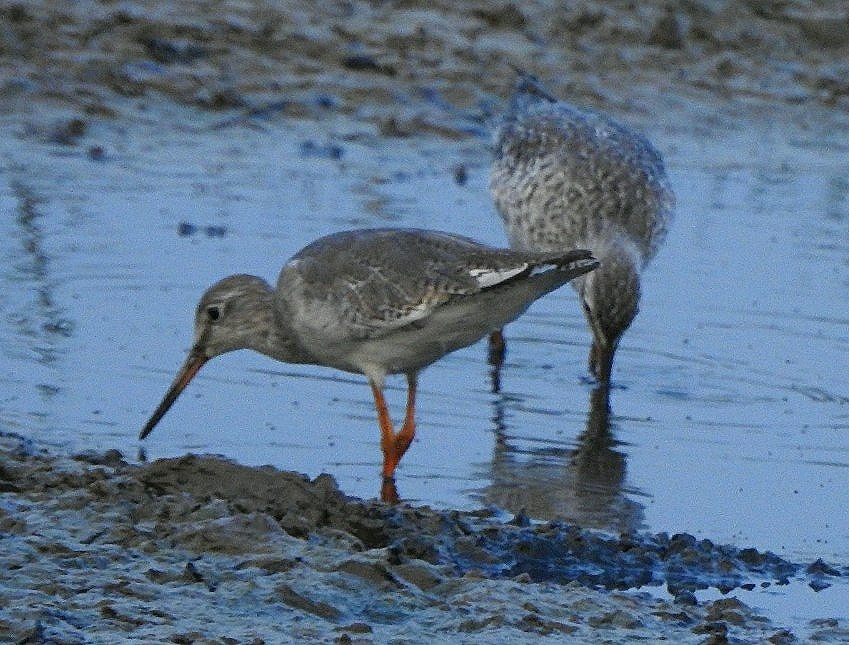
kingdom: Animalia
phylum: Chordata
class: Aves
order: Charadriiformes
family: Scolopacidae
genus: Tringa
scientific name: Tringa totanus
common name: Common redshank
